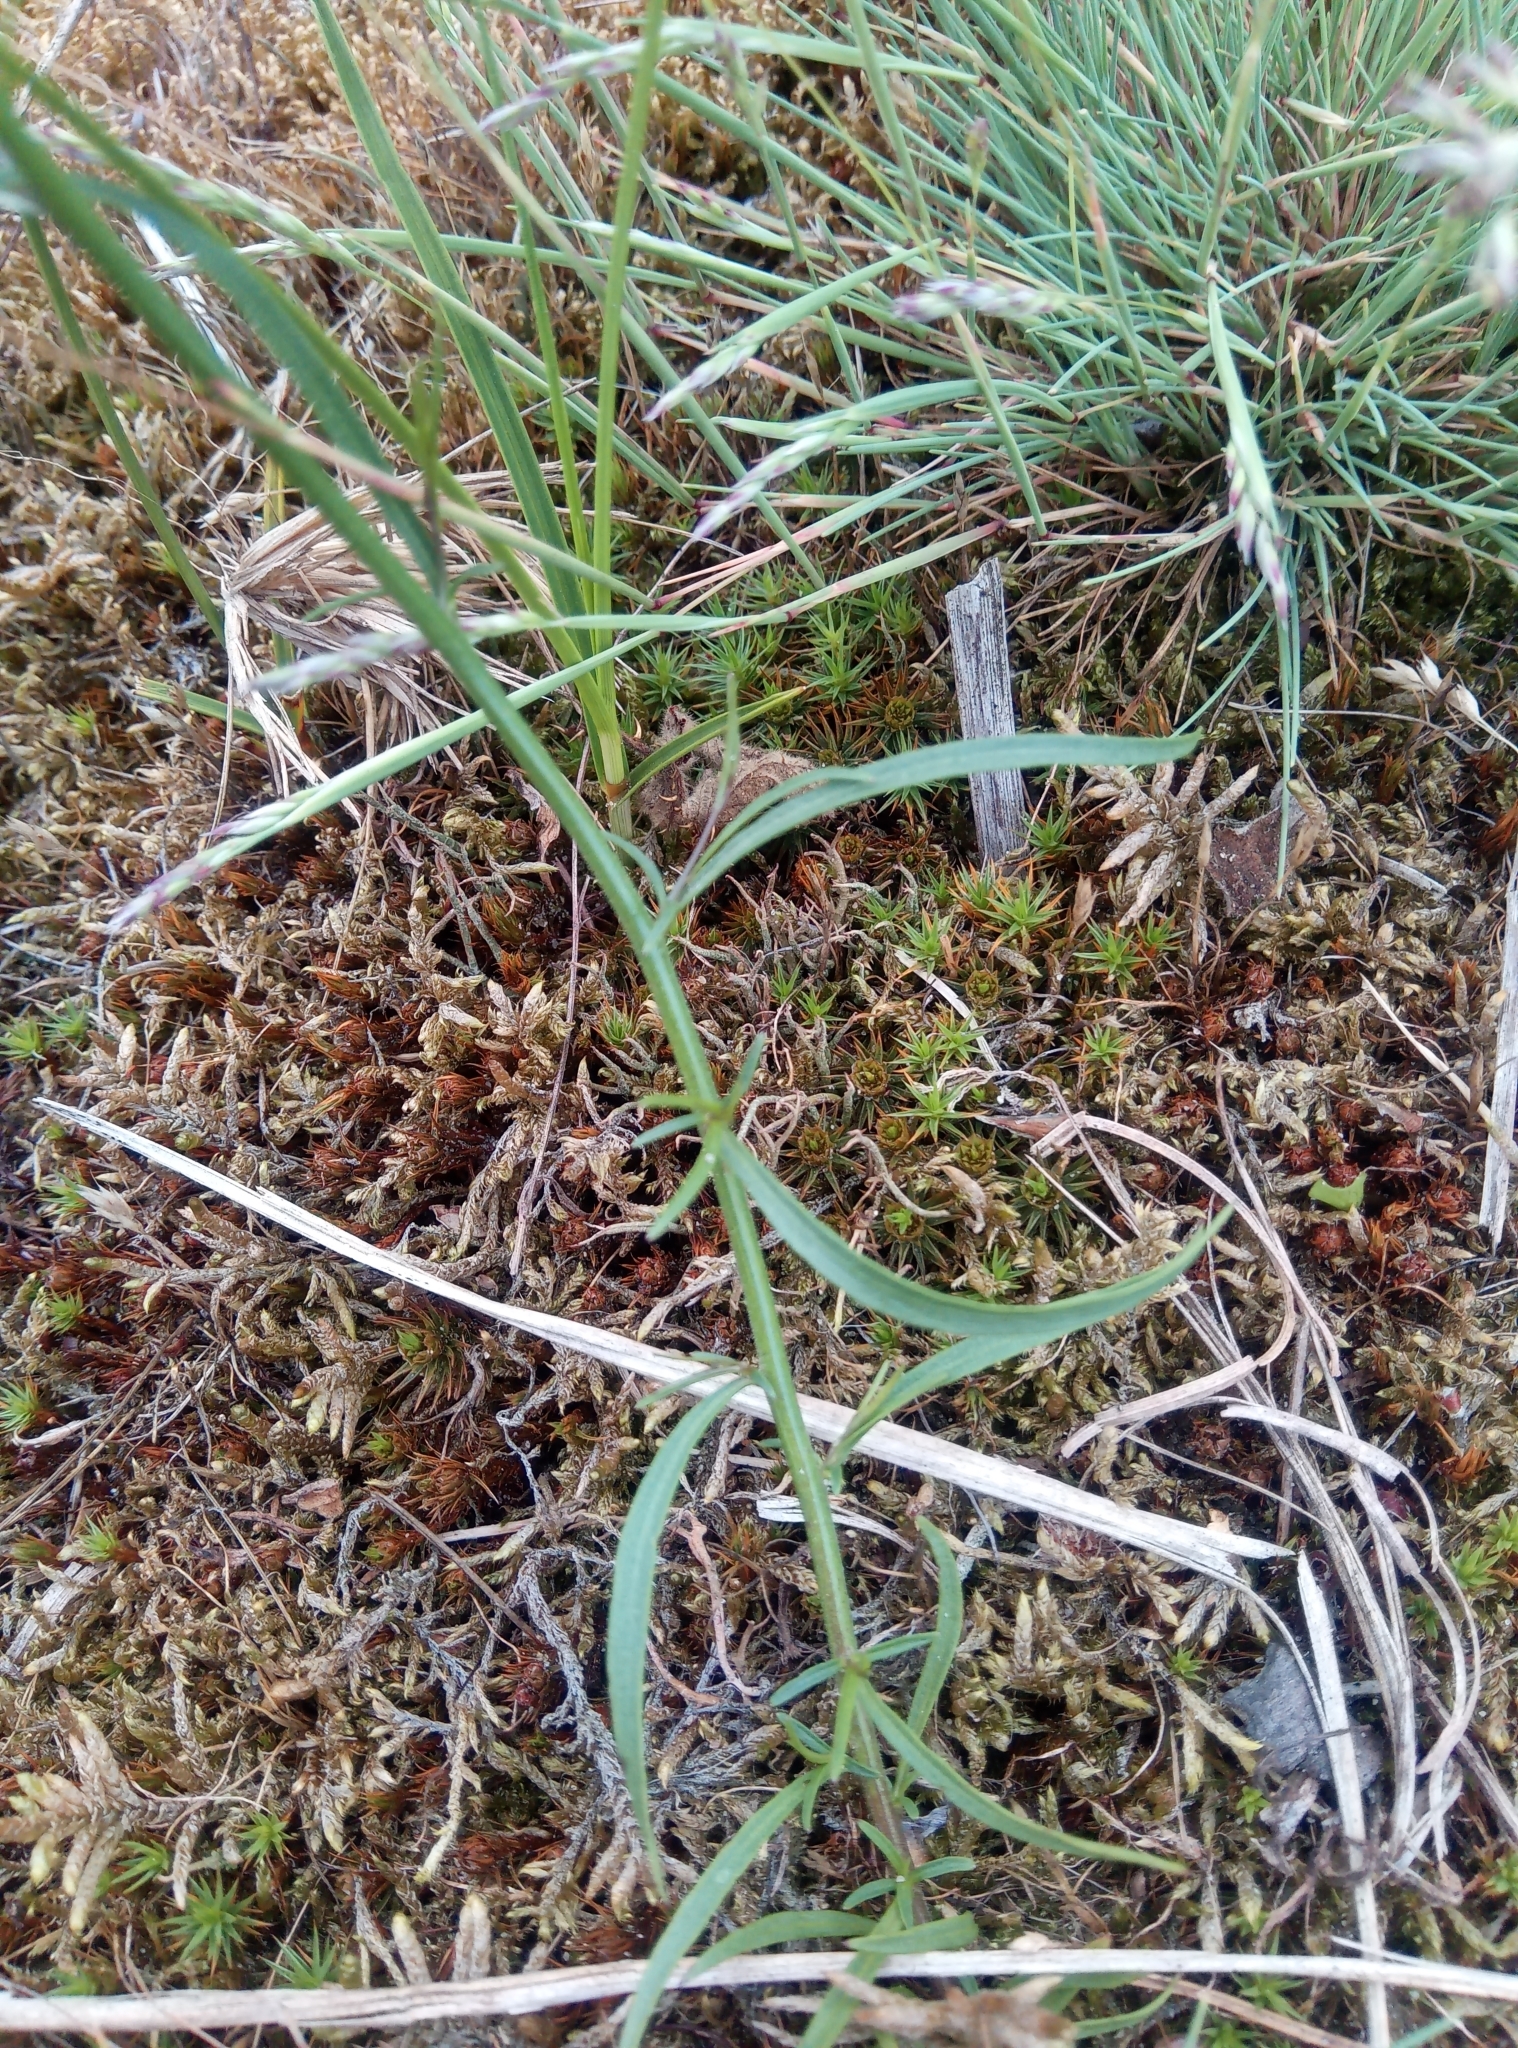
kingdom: Plantae
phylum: Tracheophyta
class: Magnoliopsida
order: Asterales
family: Campanulaceae
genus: Campanula
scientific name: Campanula rotundifolia
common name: Harebell
